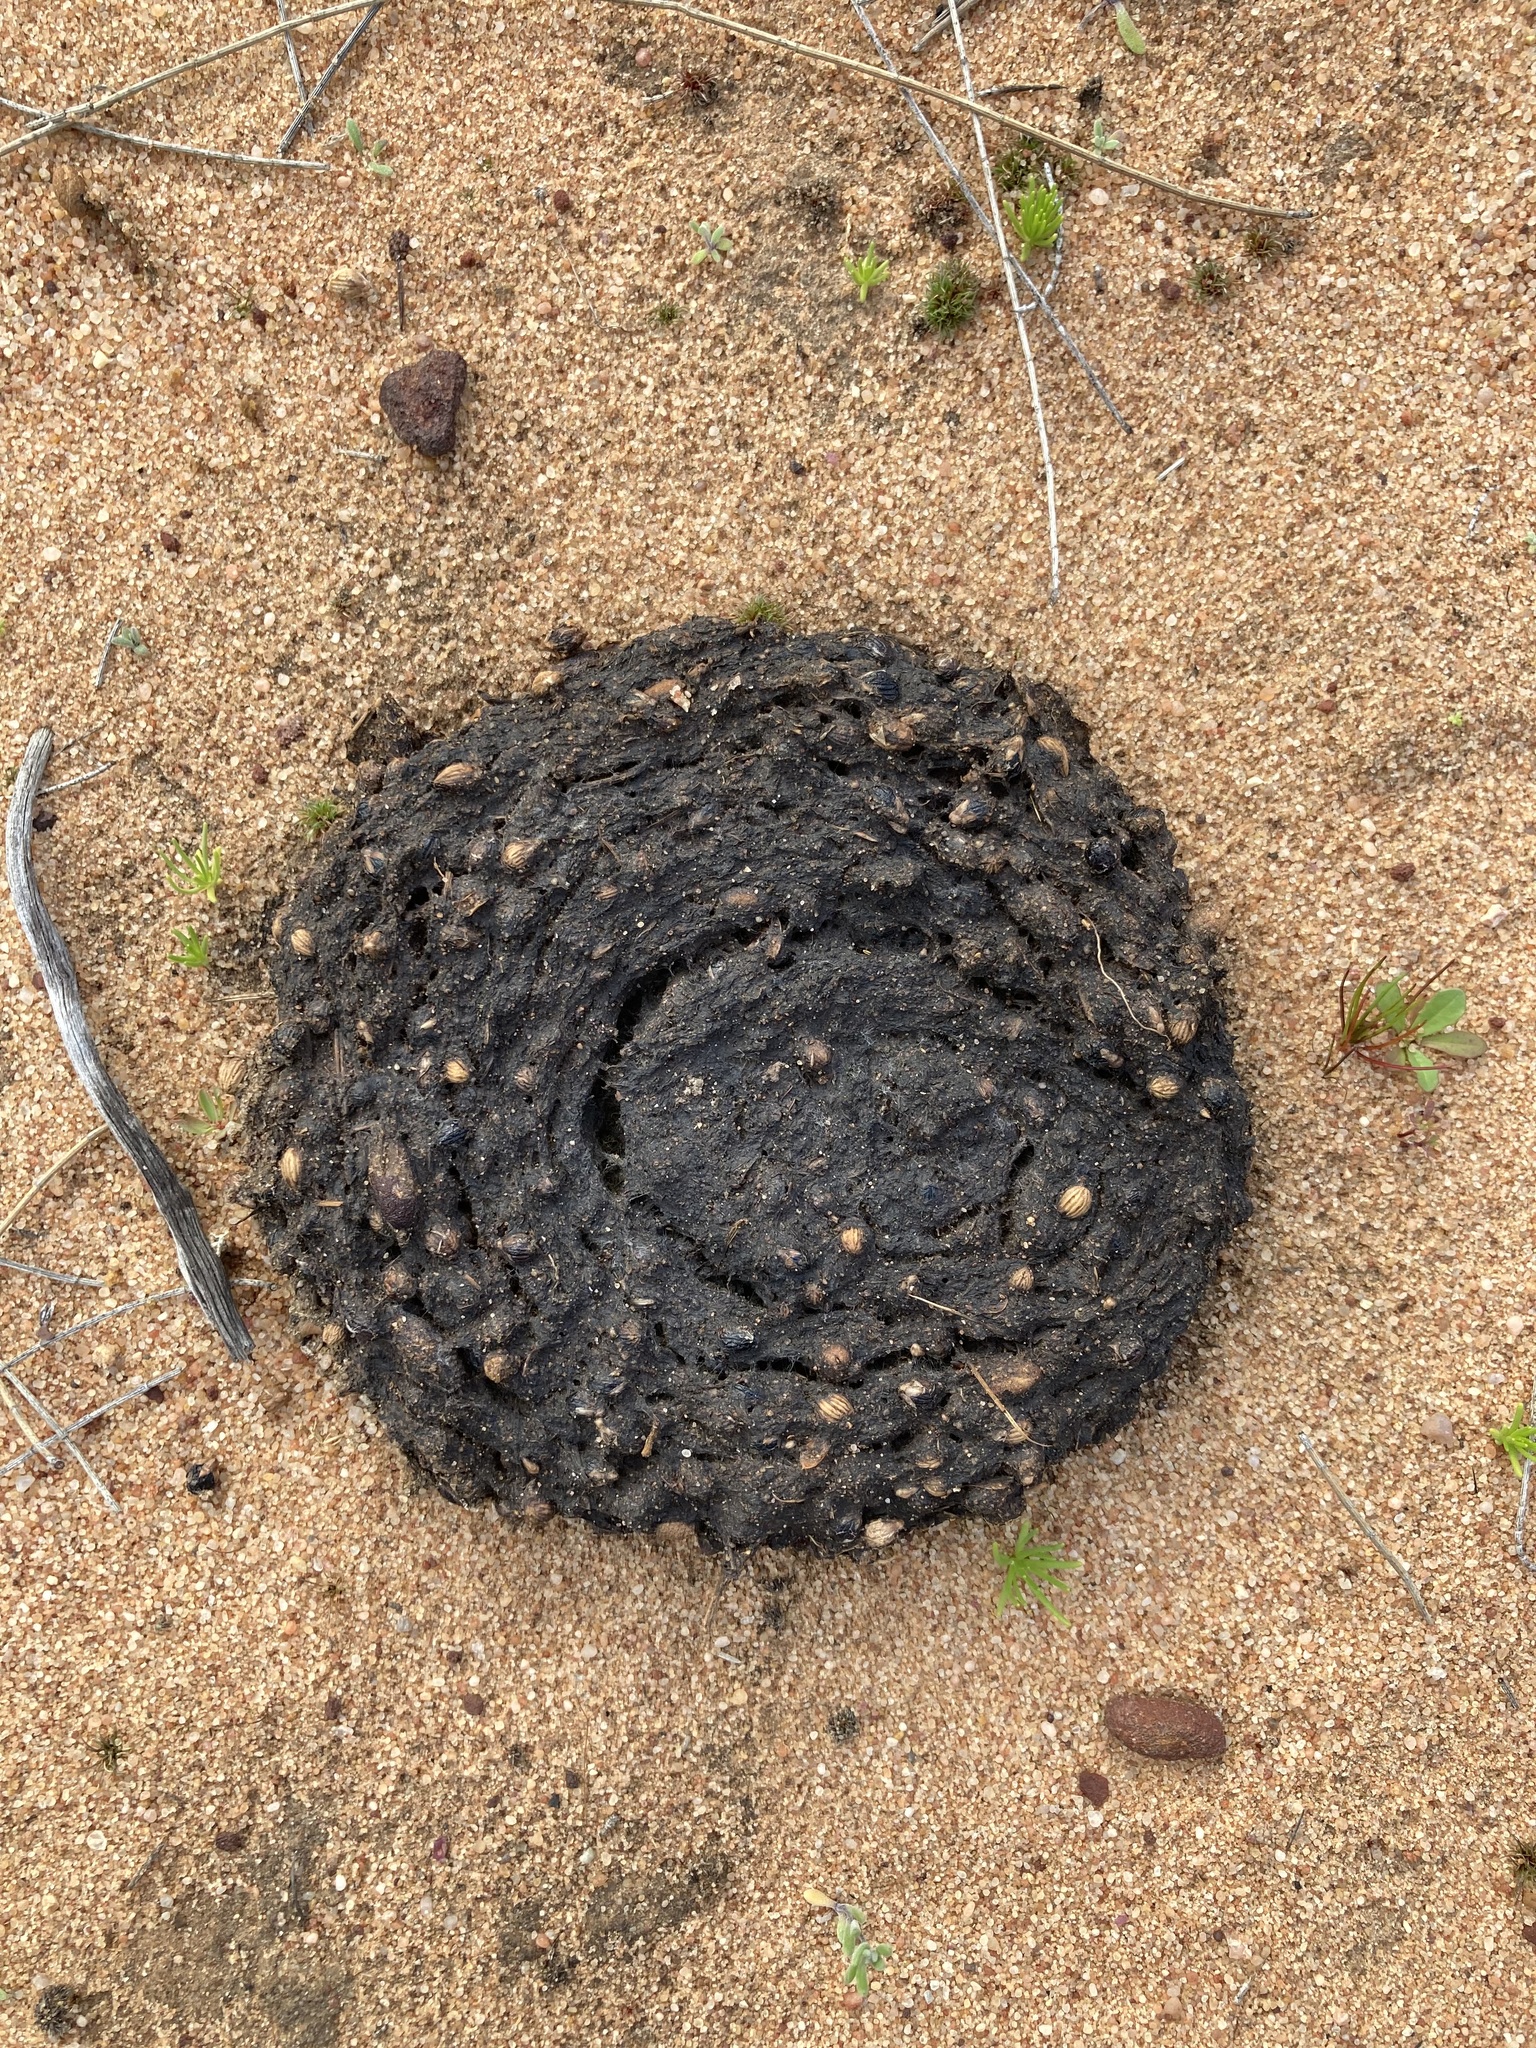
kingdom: Animalia
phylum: Chordata
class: Aves
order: Casuariiformes
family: Dromaiidae
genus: Dromaius
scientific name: Dromaius novaehollandiae
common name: Emu
